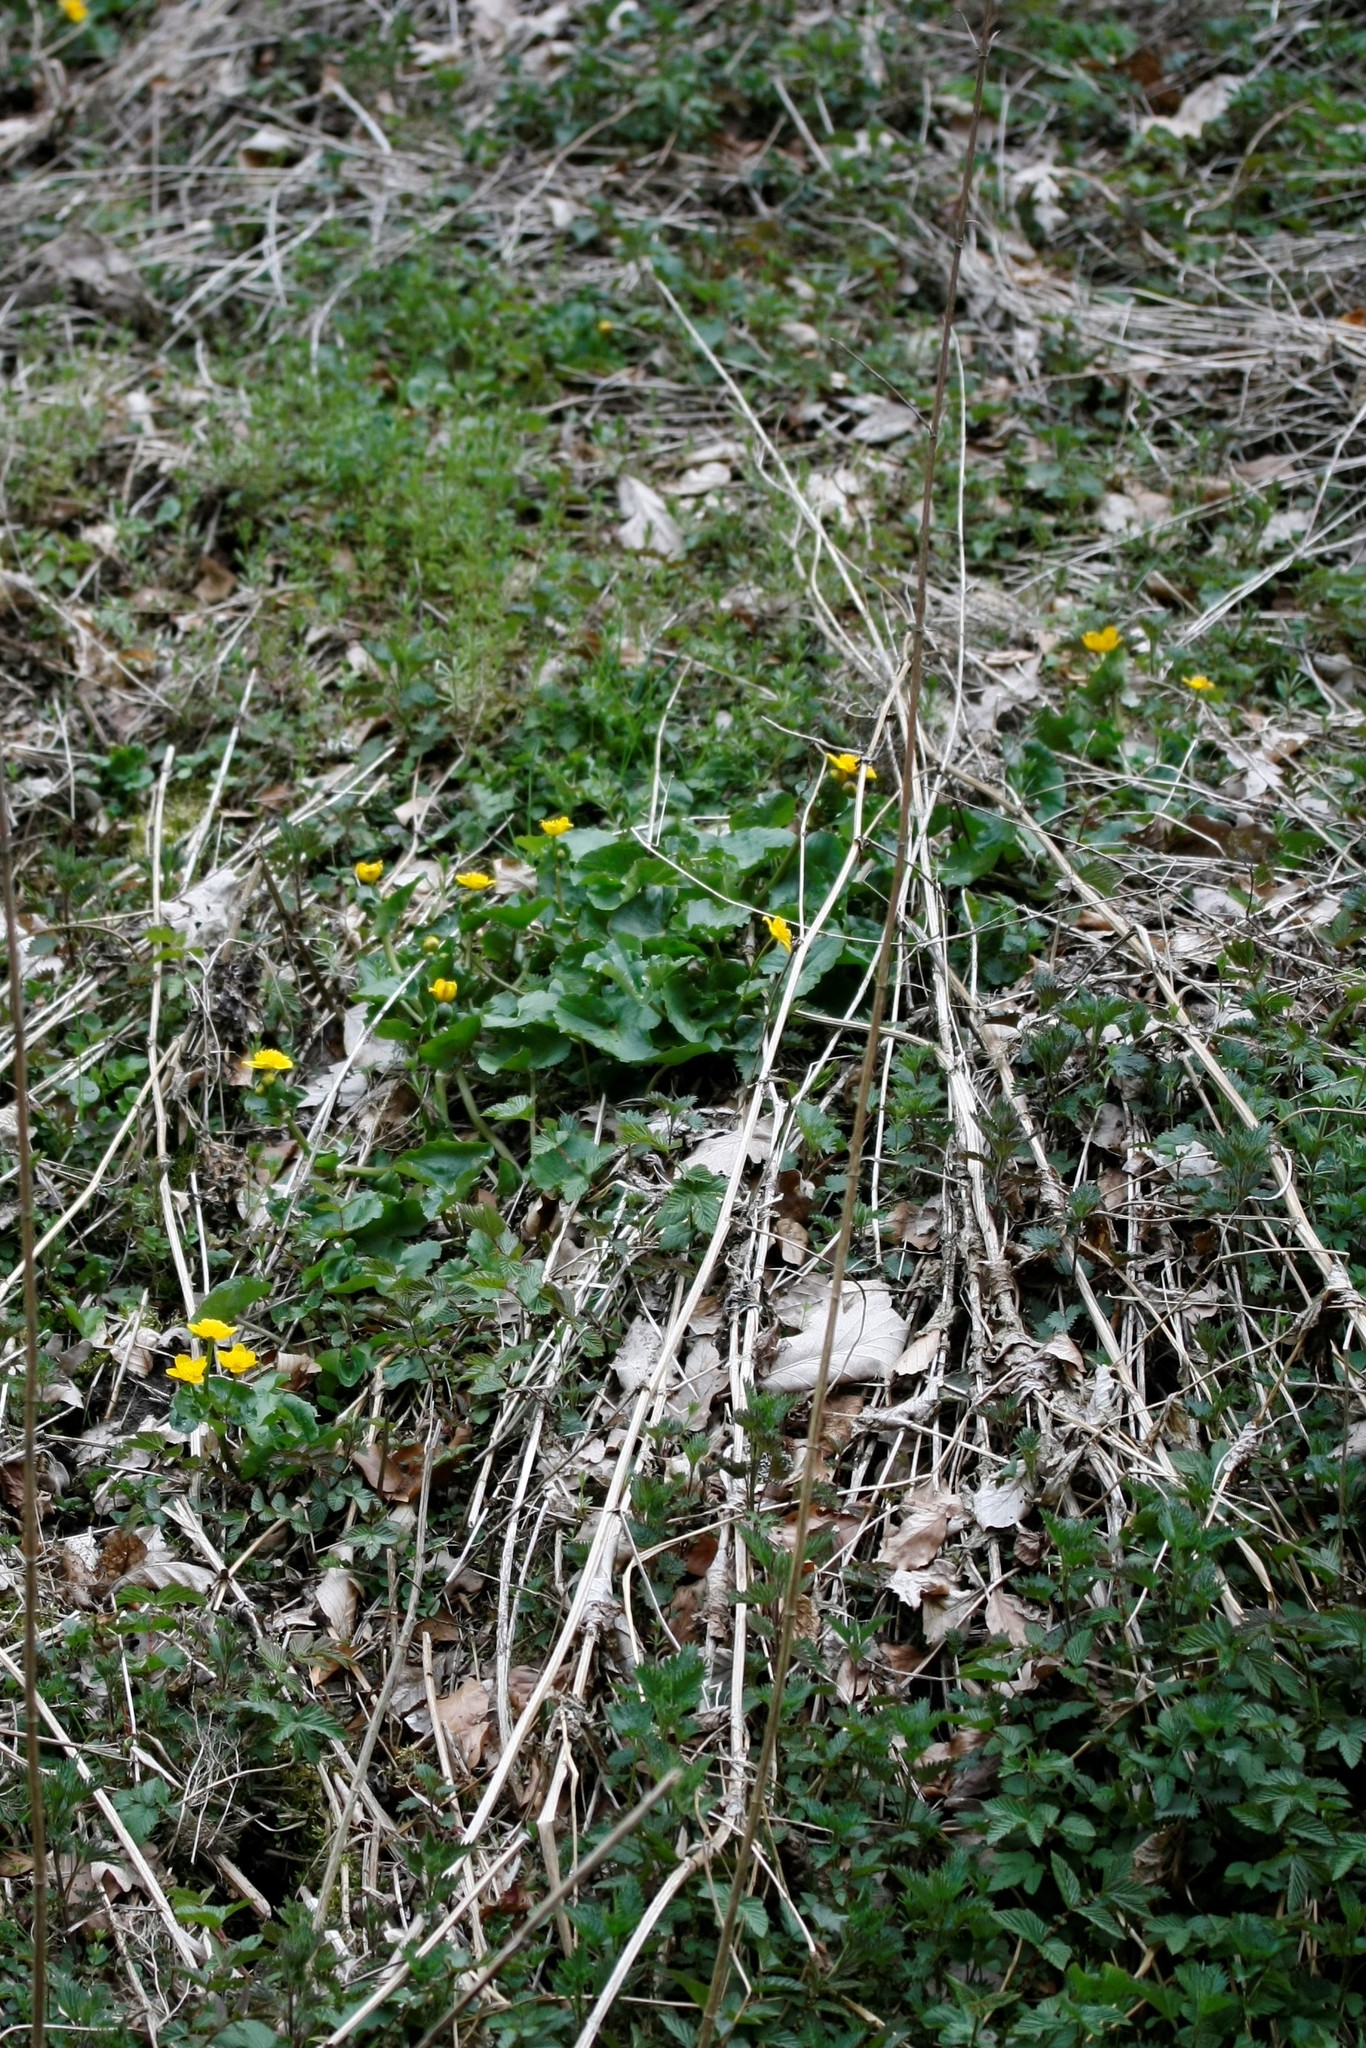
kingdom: Plantae
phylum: Tracheophyta
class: Magnoliopsida
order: Ranunculales
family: Ranunculaceae
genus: Caltha
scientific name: Caltha palustris
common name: Marsh marigold
